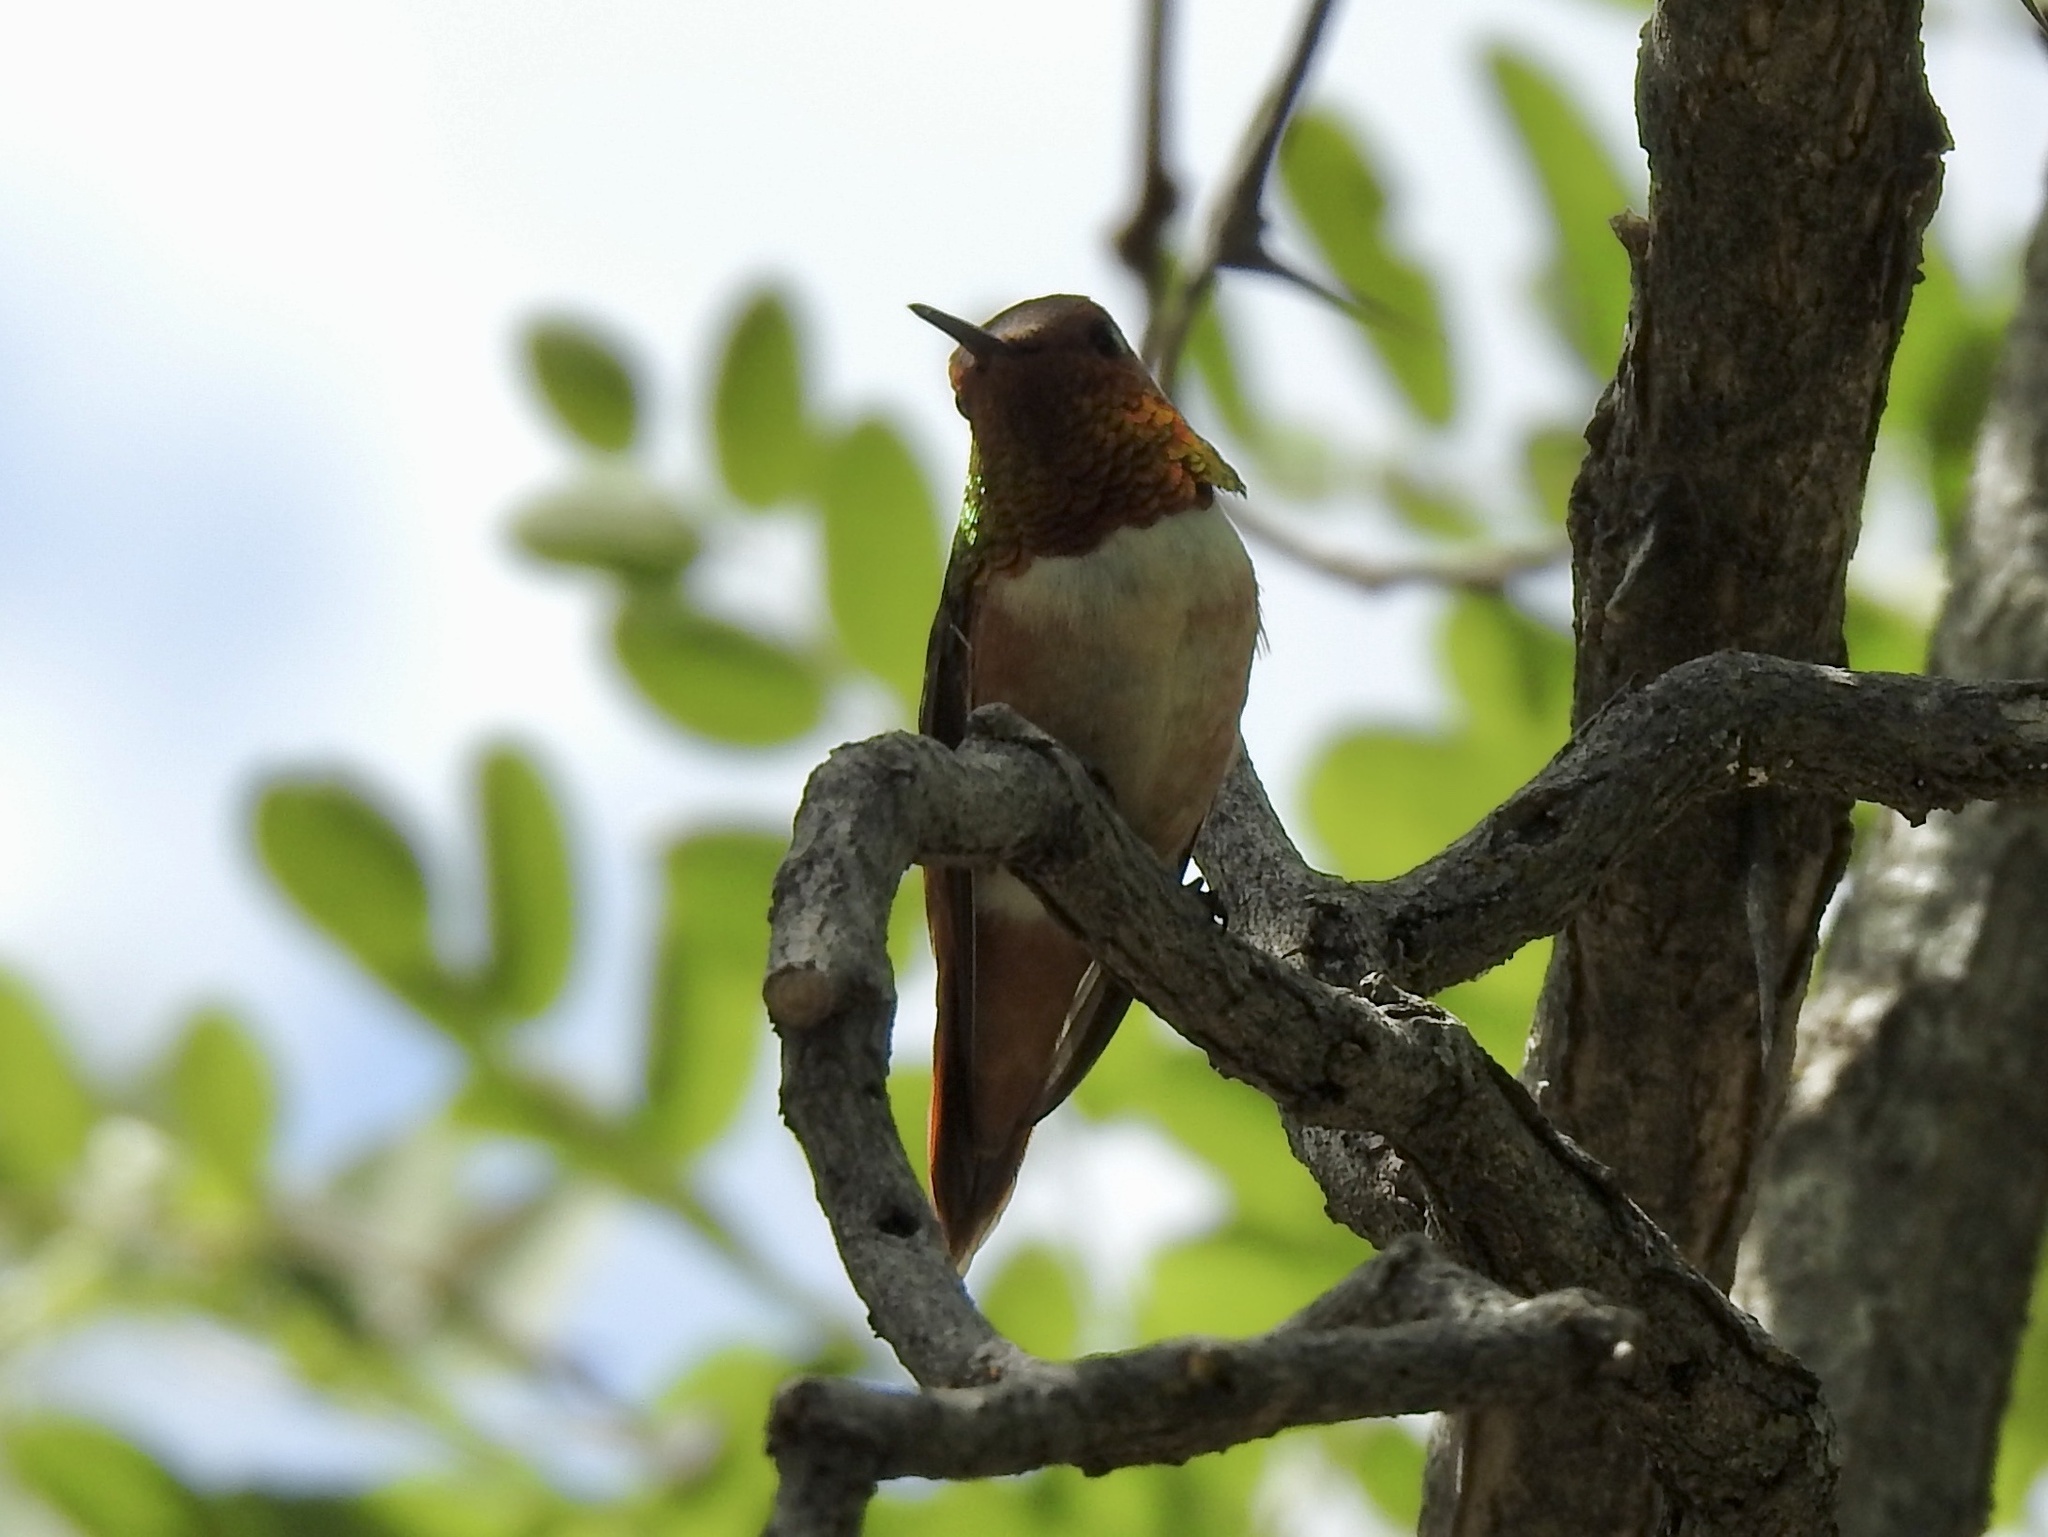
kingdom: Animalia
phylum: Chordata
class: Aves
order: Apodiformes
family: Trochilidae
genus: Selasphorus
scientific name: Selasphorus rufus
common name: Rufous hummingbird
